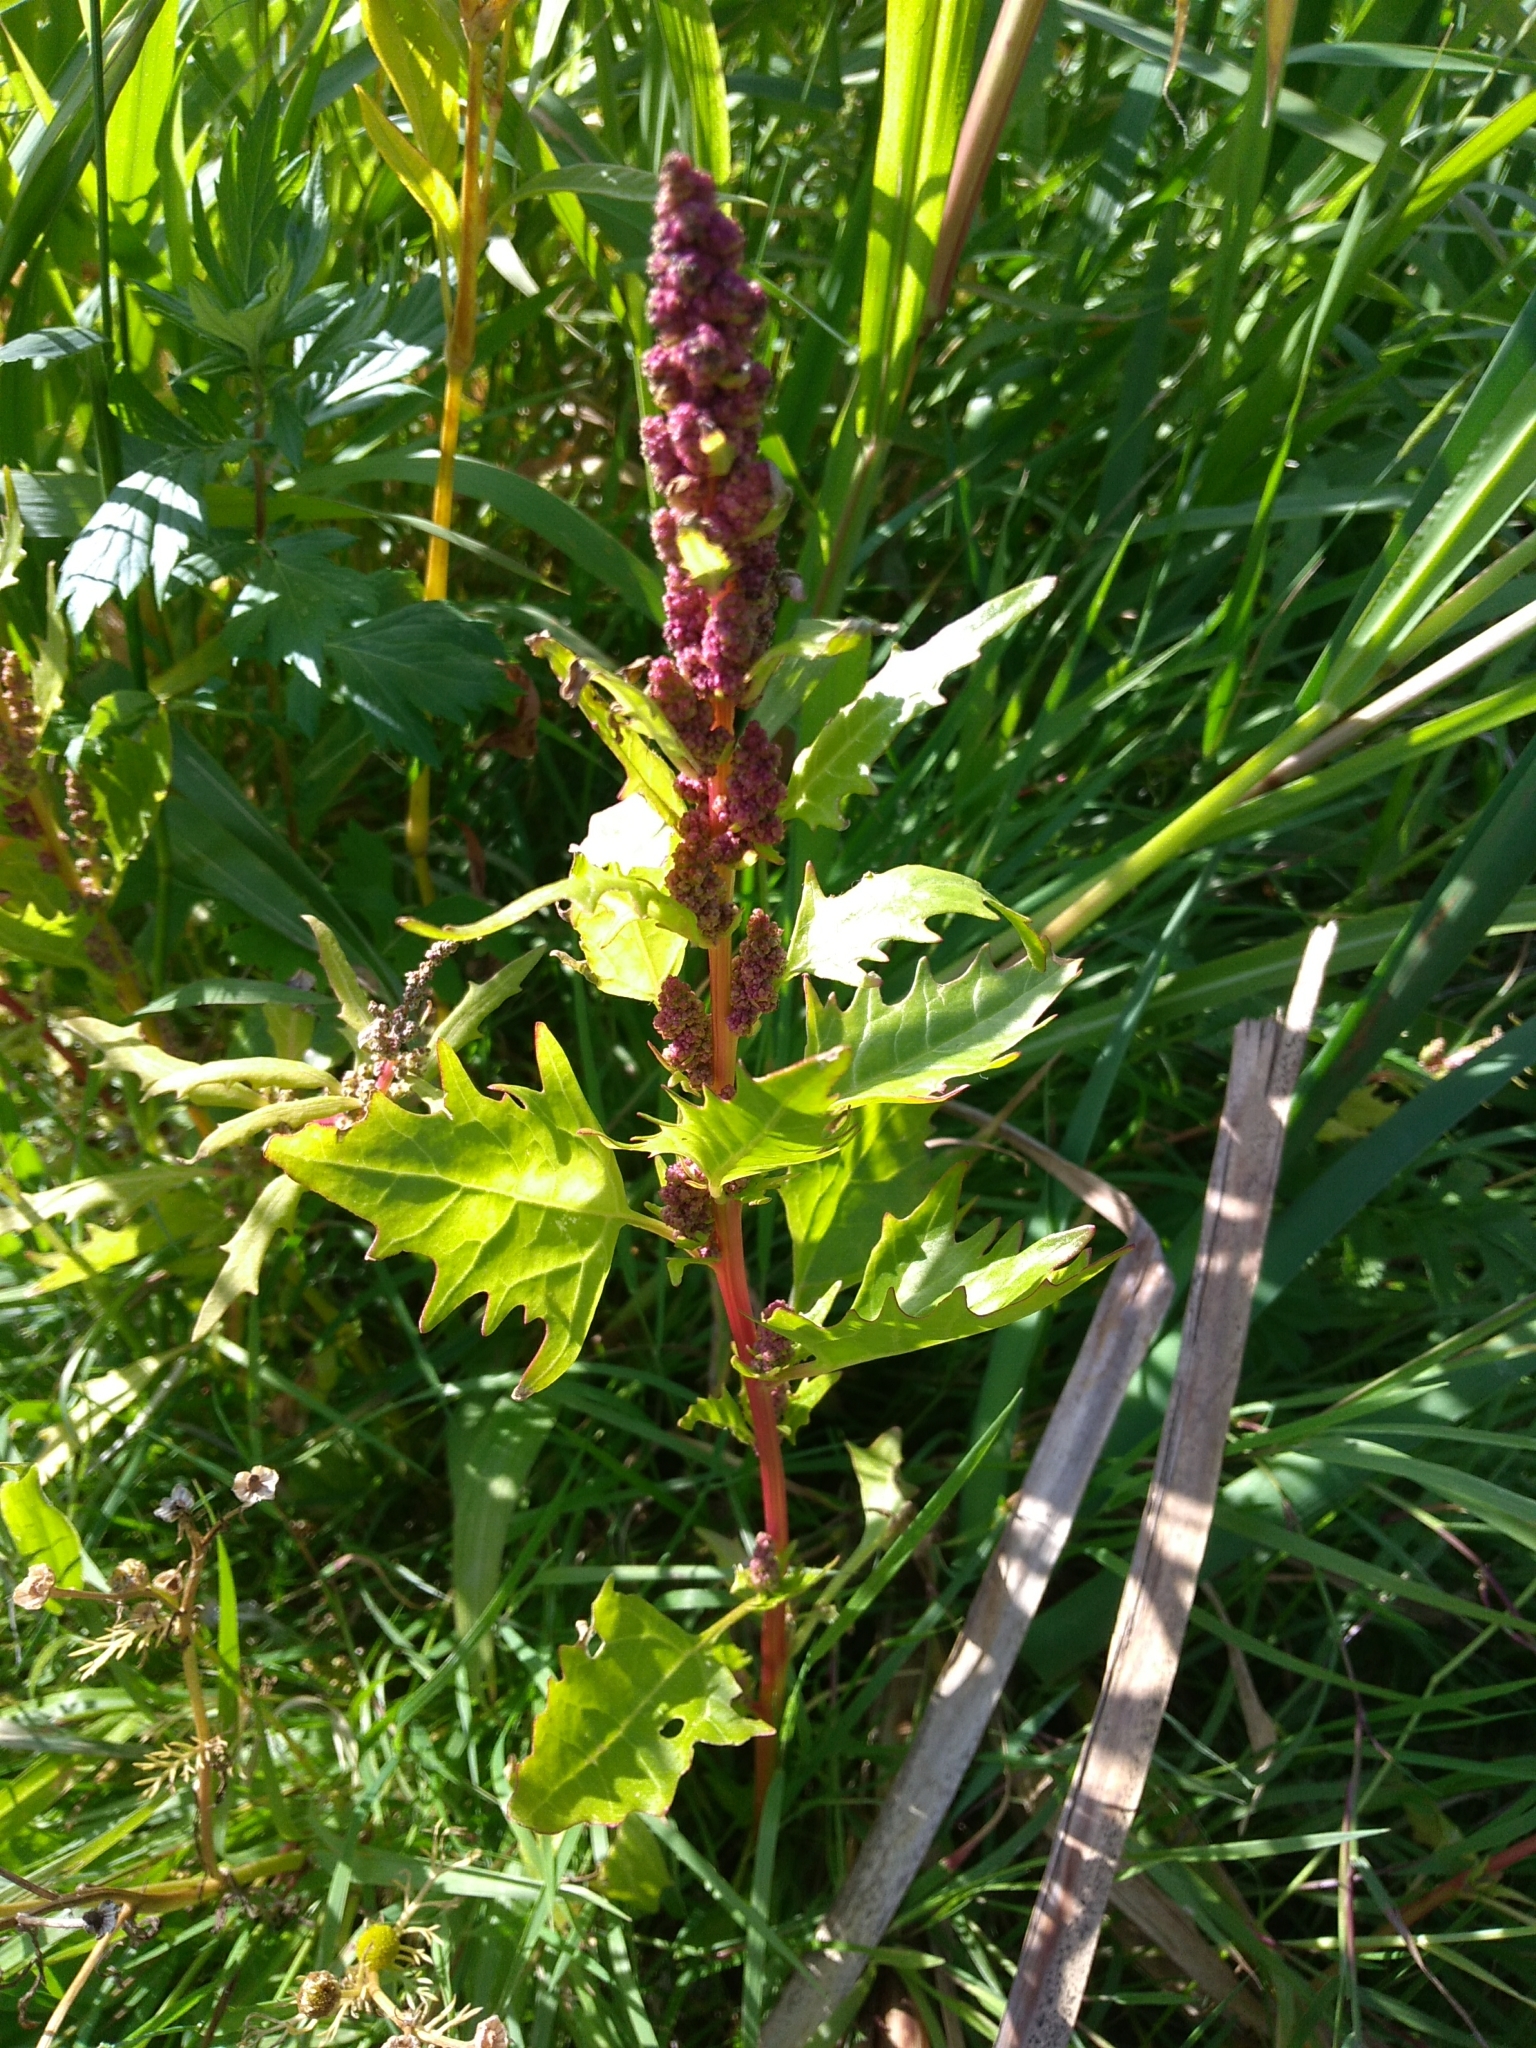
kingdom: Plantae
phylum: Tracheophyta
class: Magnoliopsida
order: Caryophyllales
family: Amaranthaceae
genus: Oxybasis
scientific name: Oxybasis rubra
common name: Red goosefoot
